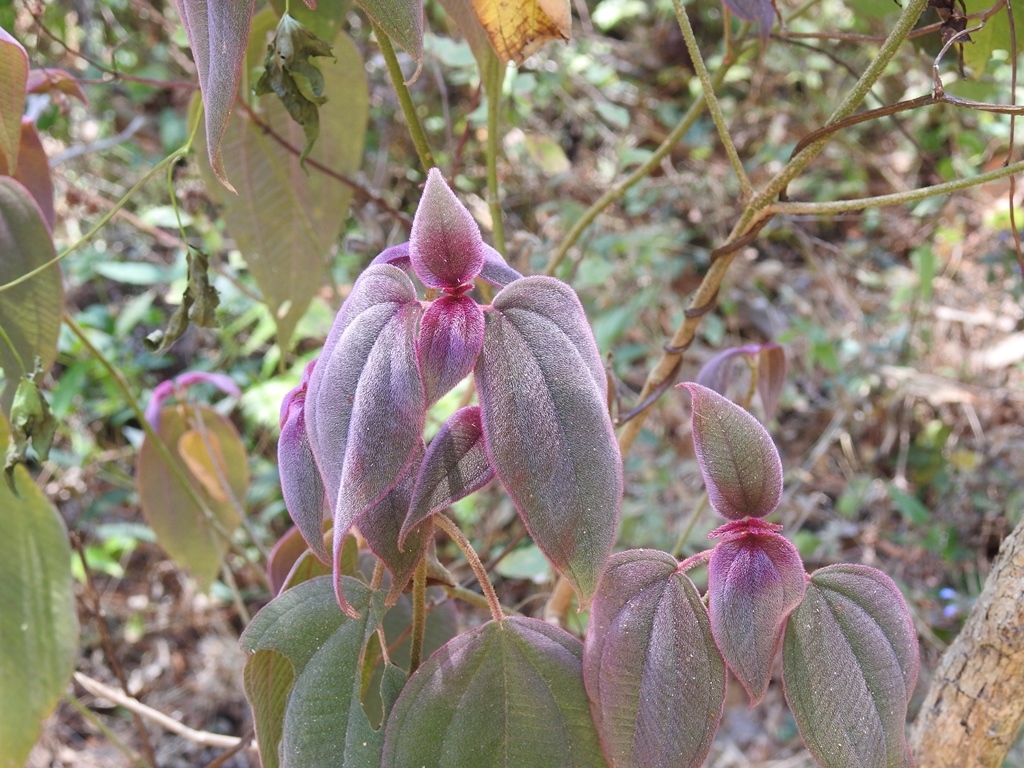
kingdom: Plantae
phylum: Tracheophyta
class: Magnoliopsida
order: Myrtales
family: Melastomataceae
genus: Miconia
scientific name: Miconia submontana
